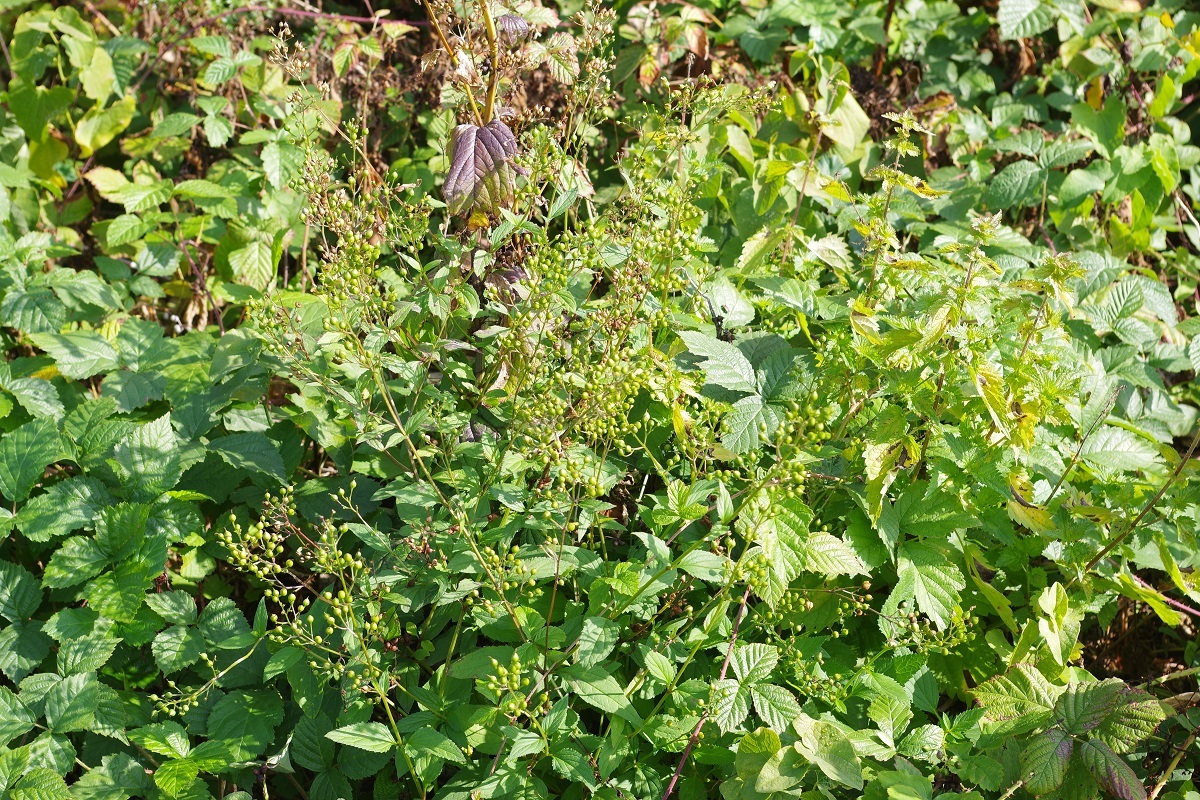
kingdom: Plantae
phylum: Tracheophyta
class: Magnoliopsida
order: Lamiales
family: Scrophulariaceae
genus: Scrophularia
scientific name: Scrophularia nodosa
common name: Common figwort
